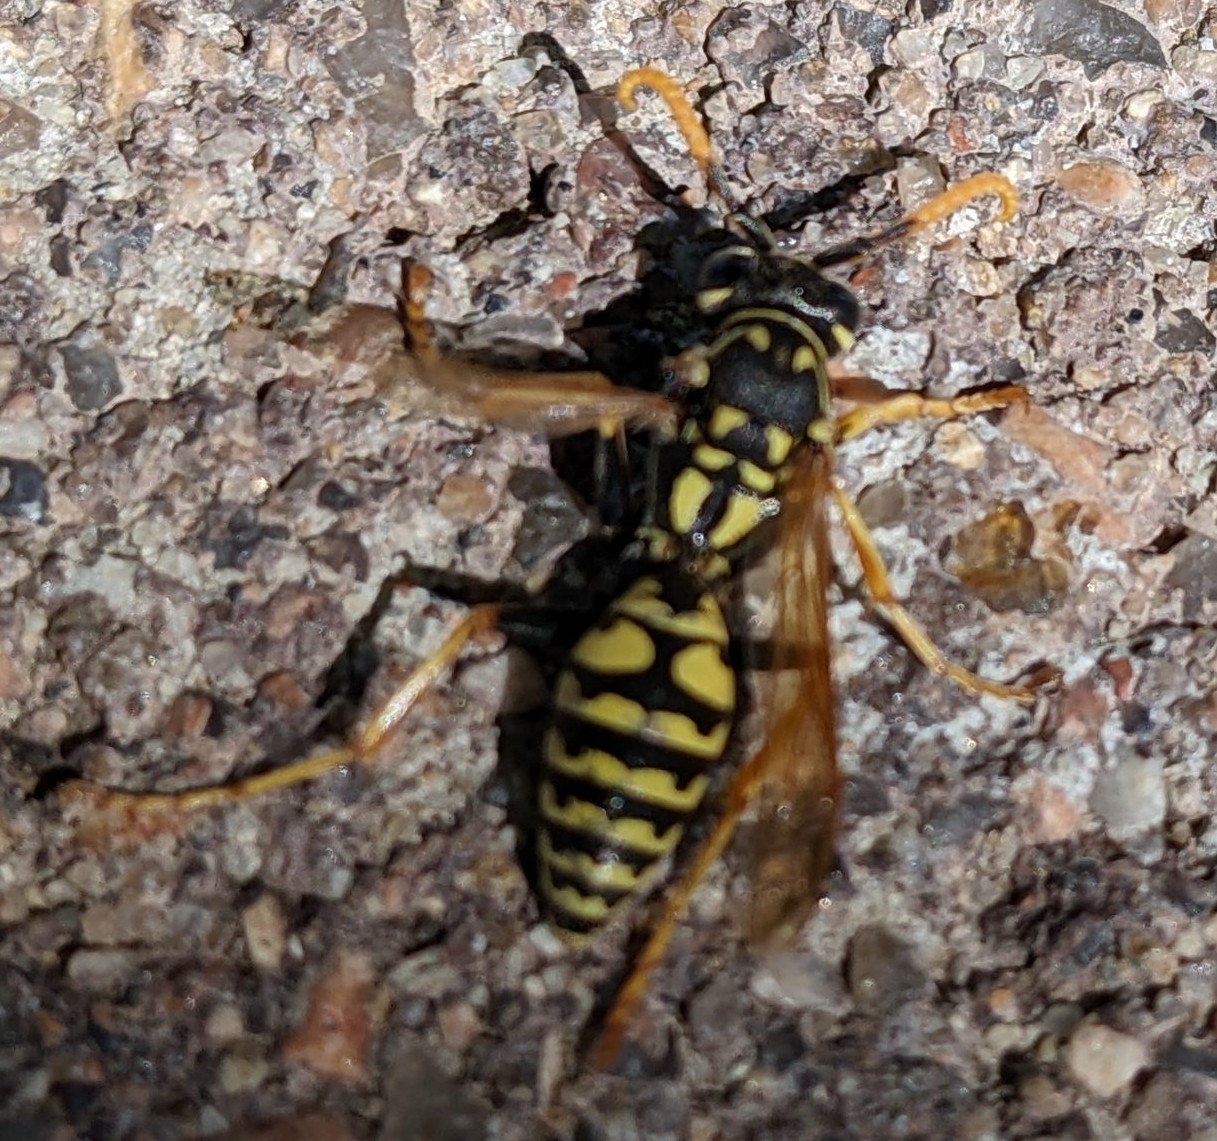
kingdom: Animalia
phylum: Arthropoda
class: Insecta
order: Hymenoptera
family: Eumenidae
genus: Polistes
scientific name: Polistes dominula
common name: Paper wasp
